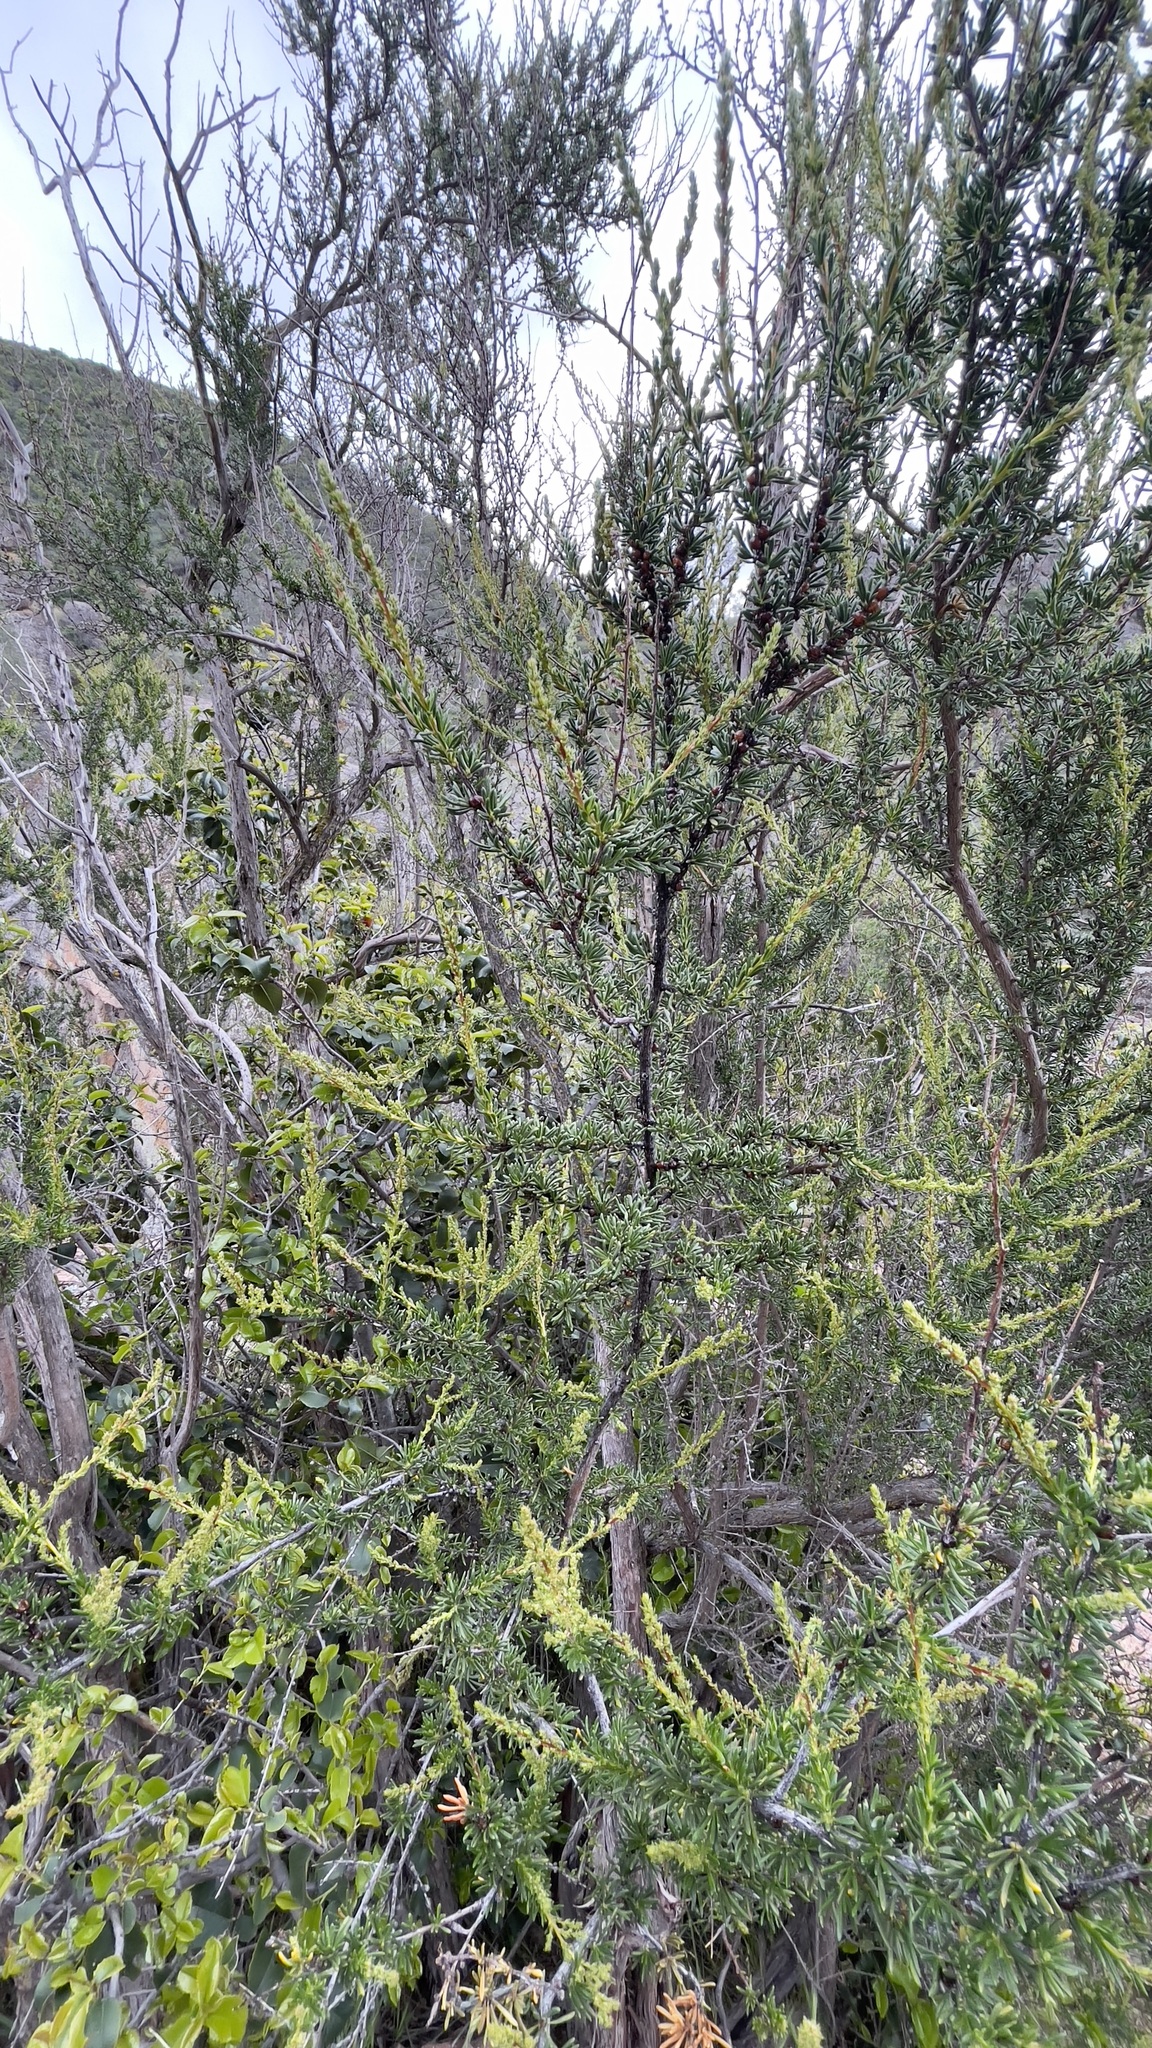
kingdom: Plantae
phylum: Tracheophyta
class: Magnoliopsida
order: Rosales
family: Rosaceae
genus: Adenostoma
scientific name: Adenostoma fasciculatum
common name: Chamise
